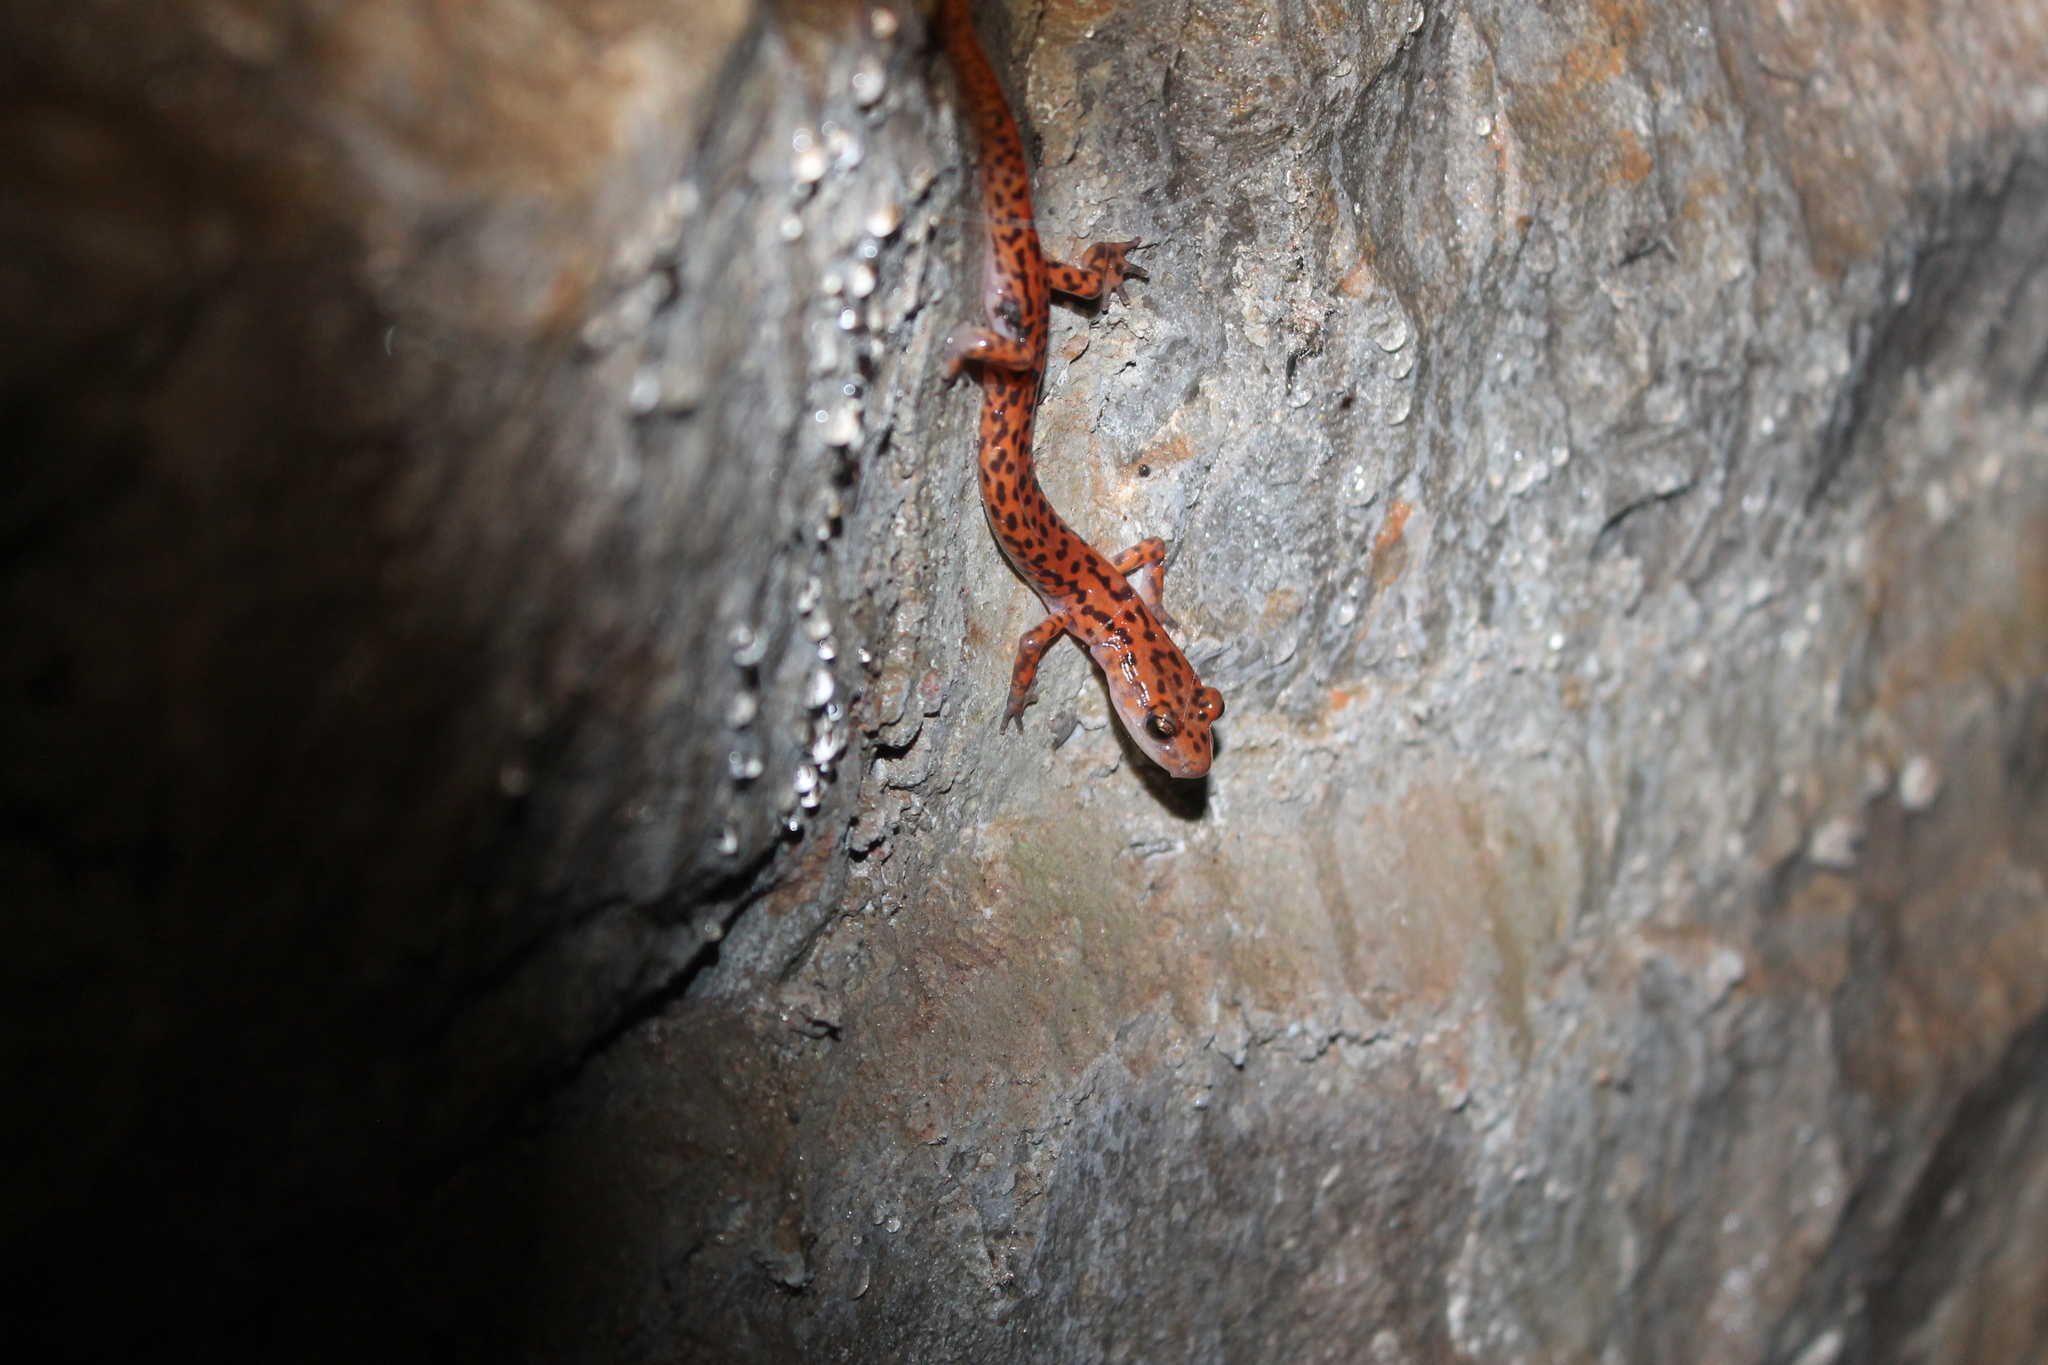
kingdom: Animalia
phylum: Chordata
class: Amphibia
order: Caudata
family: Plethodontidae
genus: Eurycea
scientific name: Eurycea lucifuga
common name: Cave salamander
